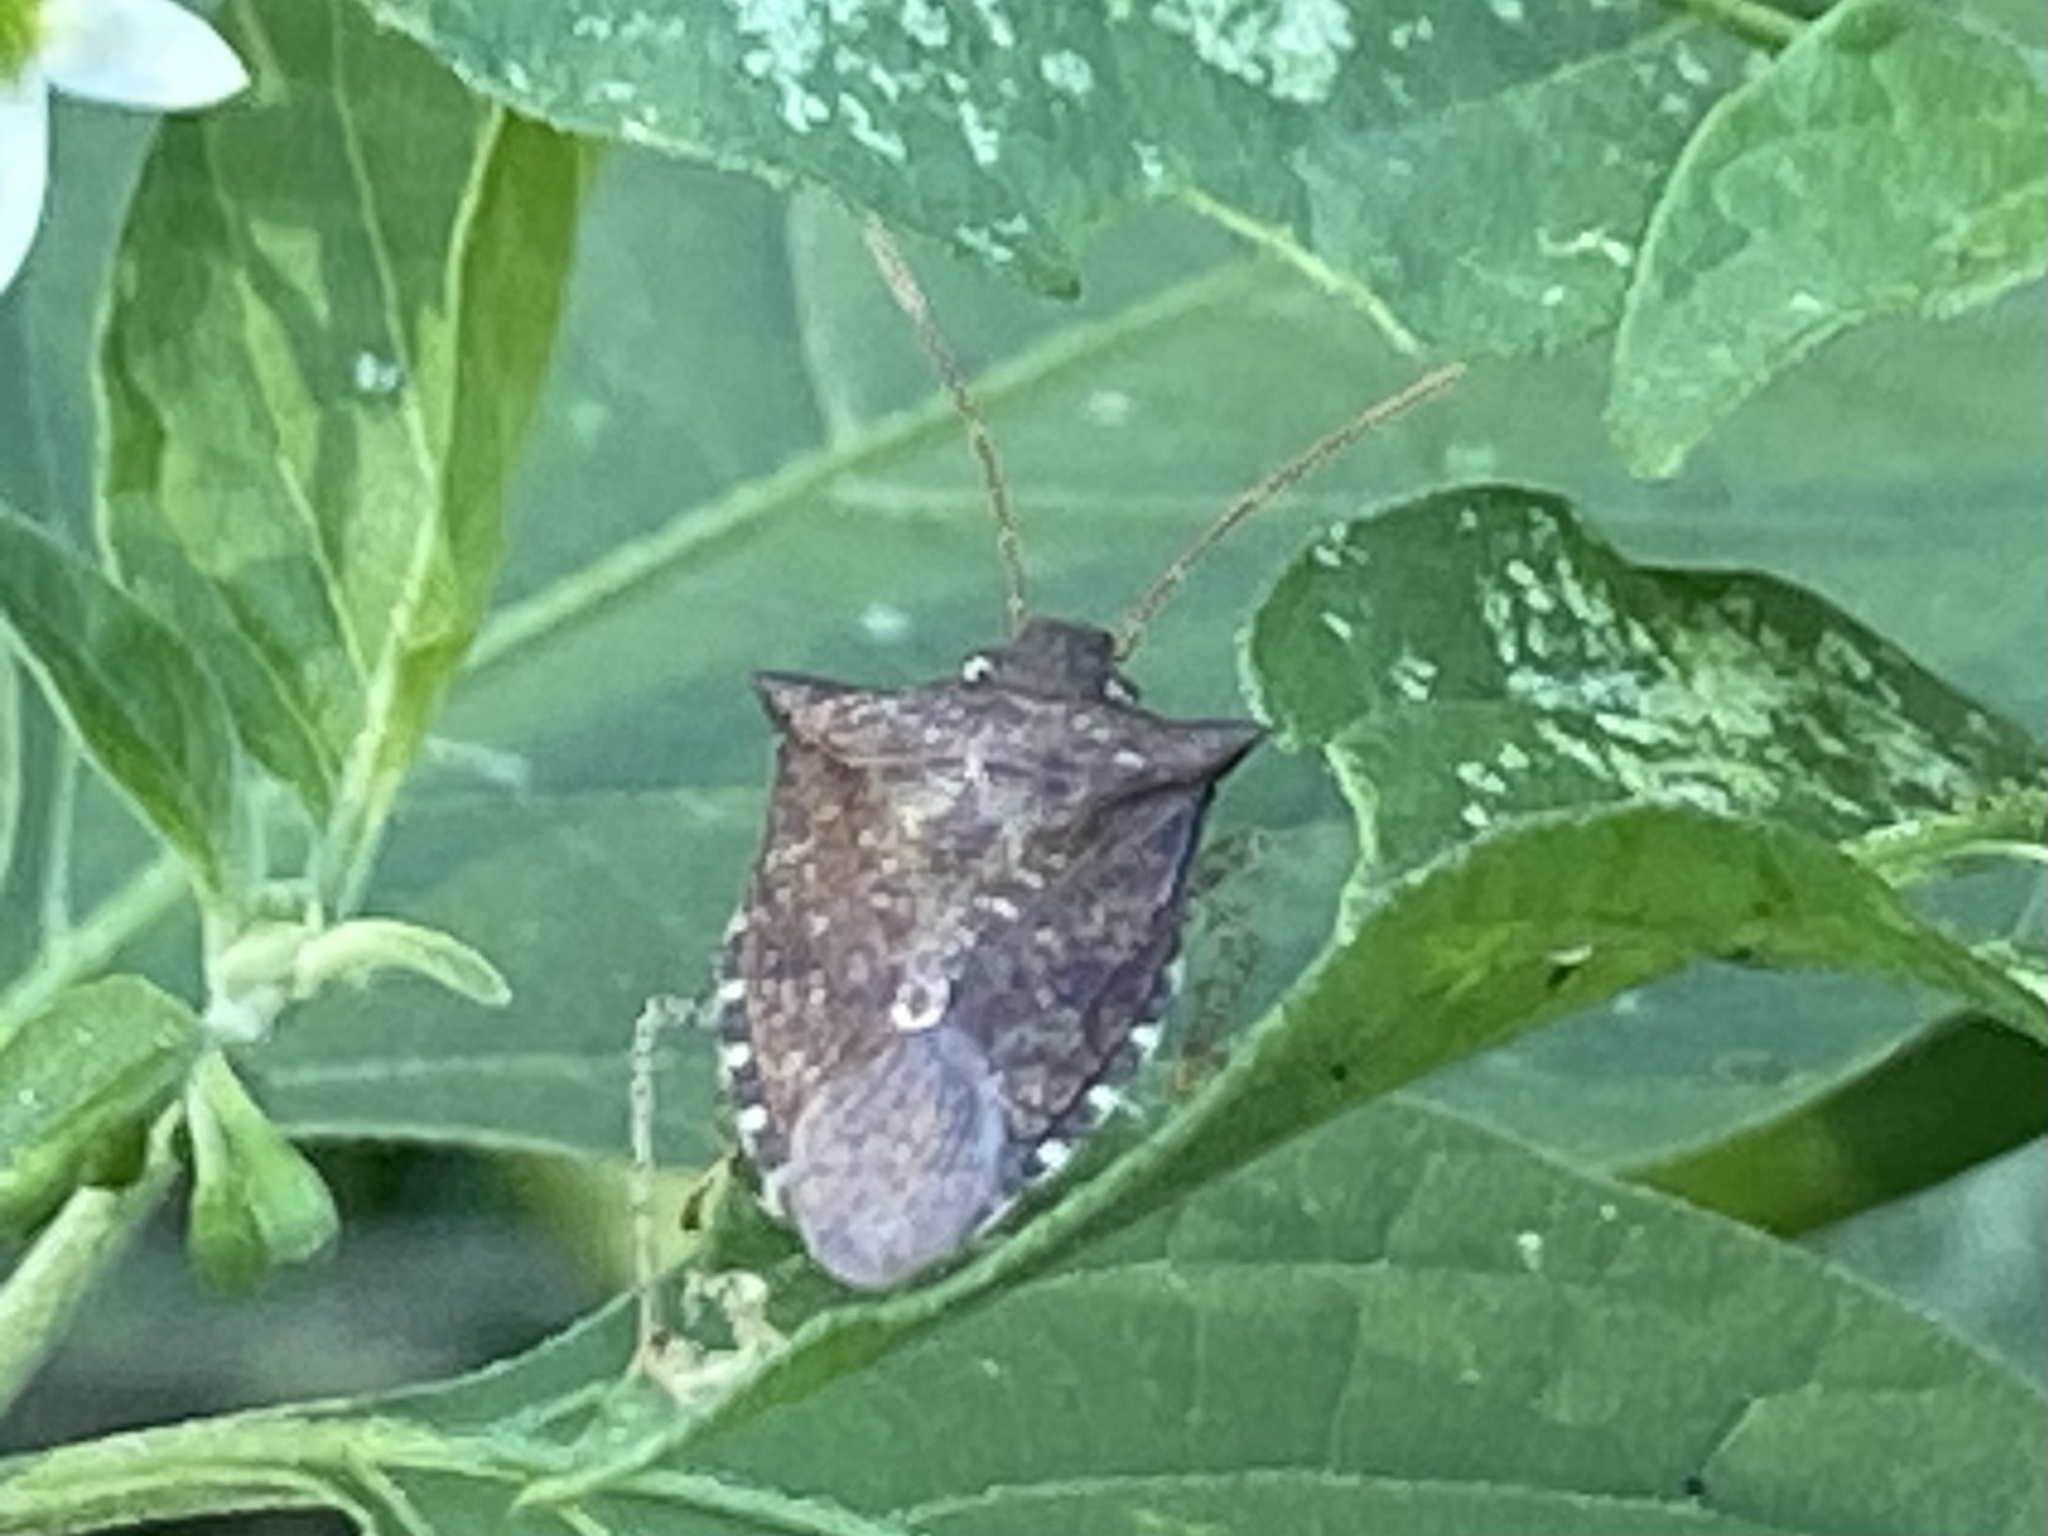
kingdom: Animalia
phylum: Arthropoda
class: Insecta
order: Hemiptera
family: Pentatomidae
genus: Euschistus
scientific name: Euschistus tristigmus
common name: Dusky stink bug
